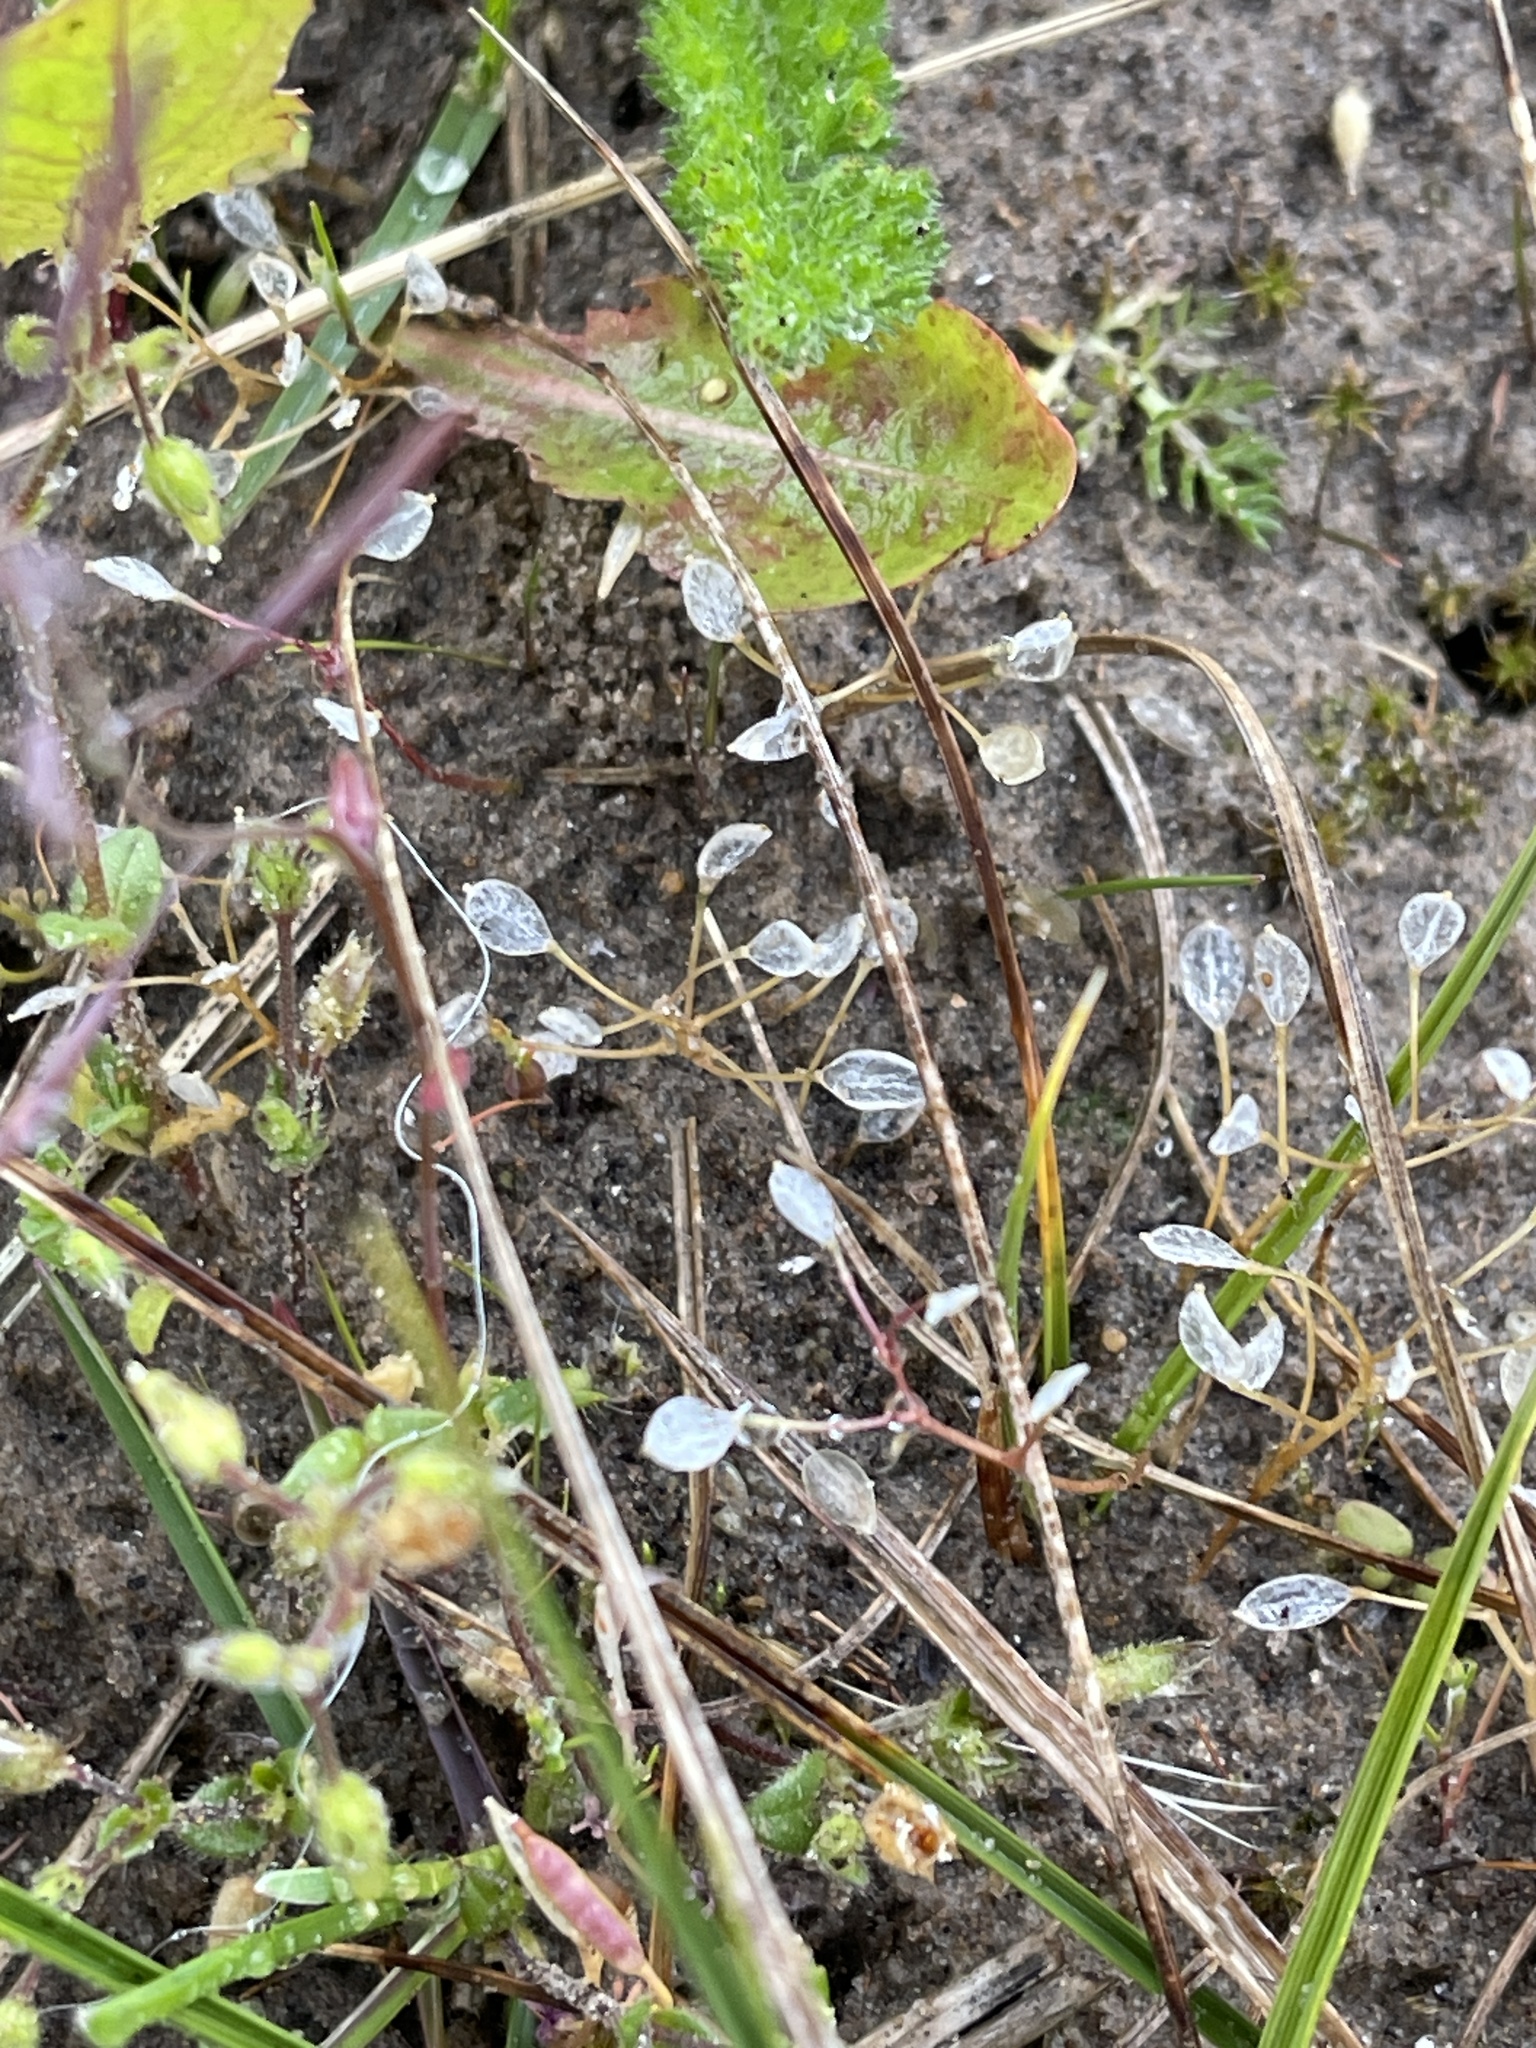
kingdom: Plantae
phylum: Tracheophyta
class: Magnoliopsida
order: Brassicales
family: Brassicaceae
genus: Draba
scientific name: Draba verna
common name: Spring draba
